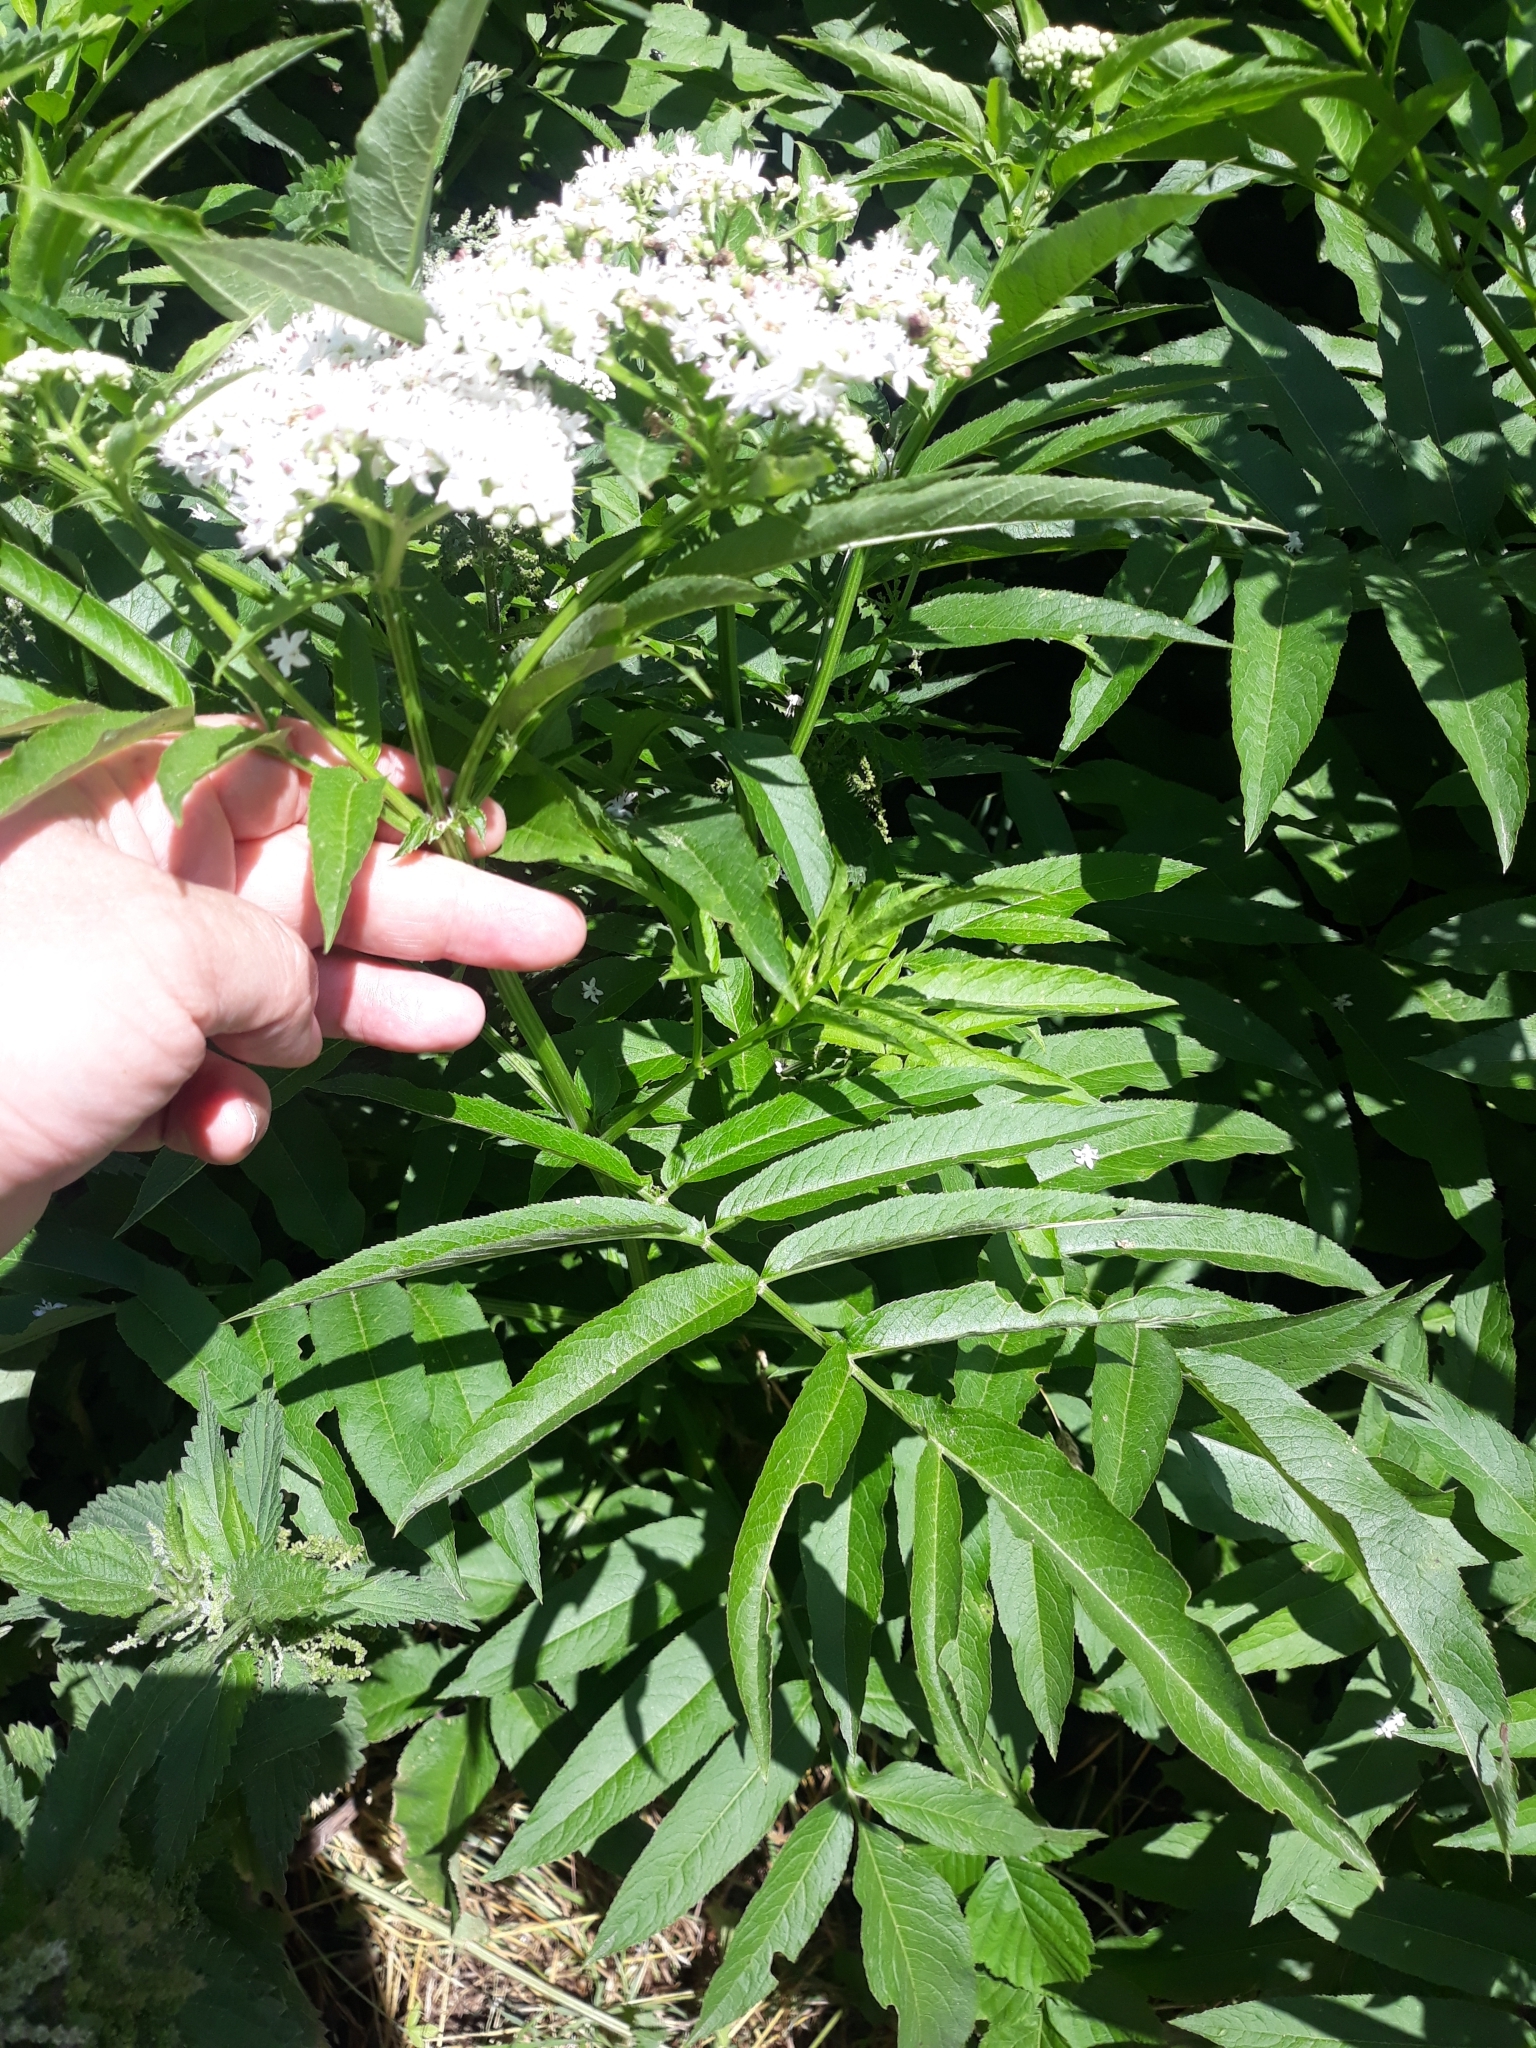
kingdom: Plantae
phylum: Tracheophyta
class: Magnoliopsida
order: Dipsacales
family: Viburnaceae
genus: Sambucus
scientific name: Sambucus ebulus
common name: Dwarf elder
